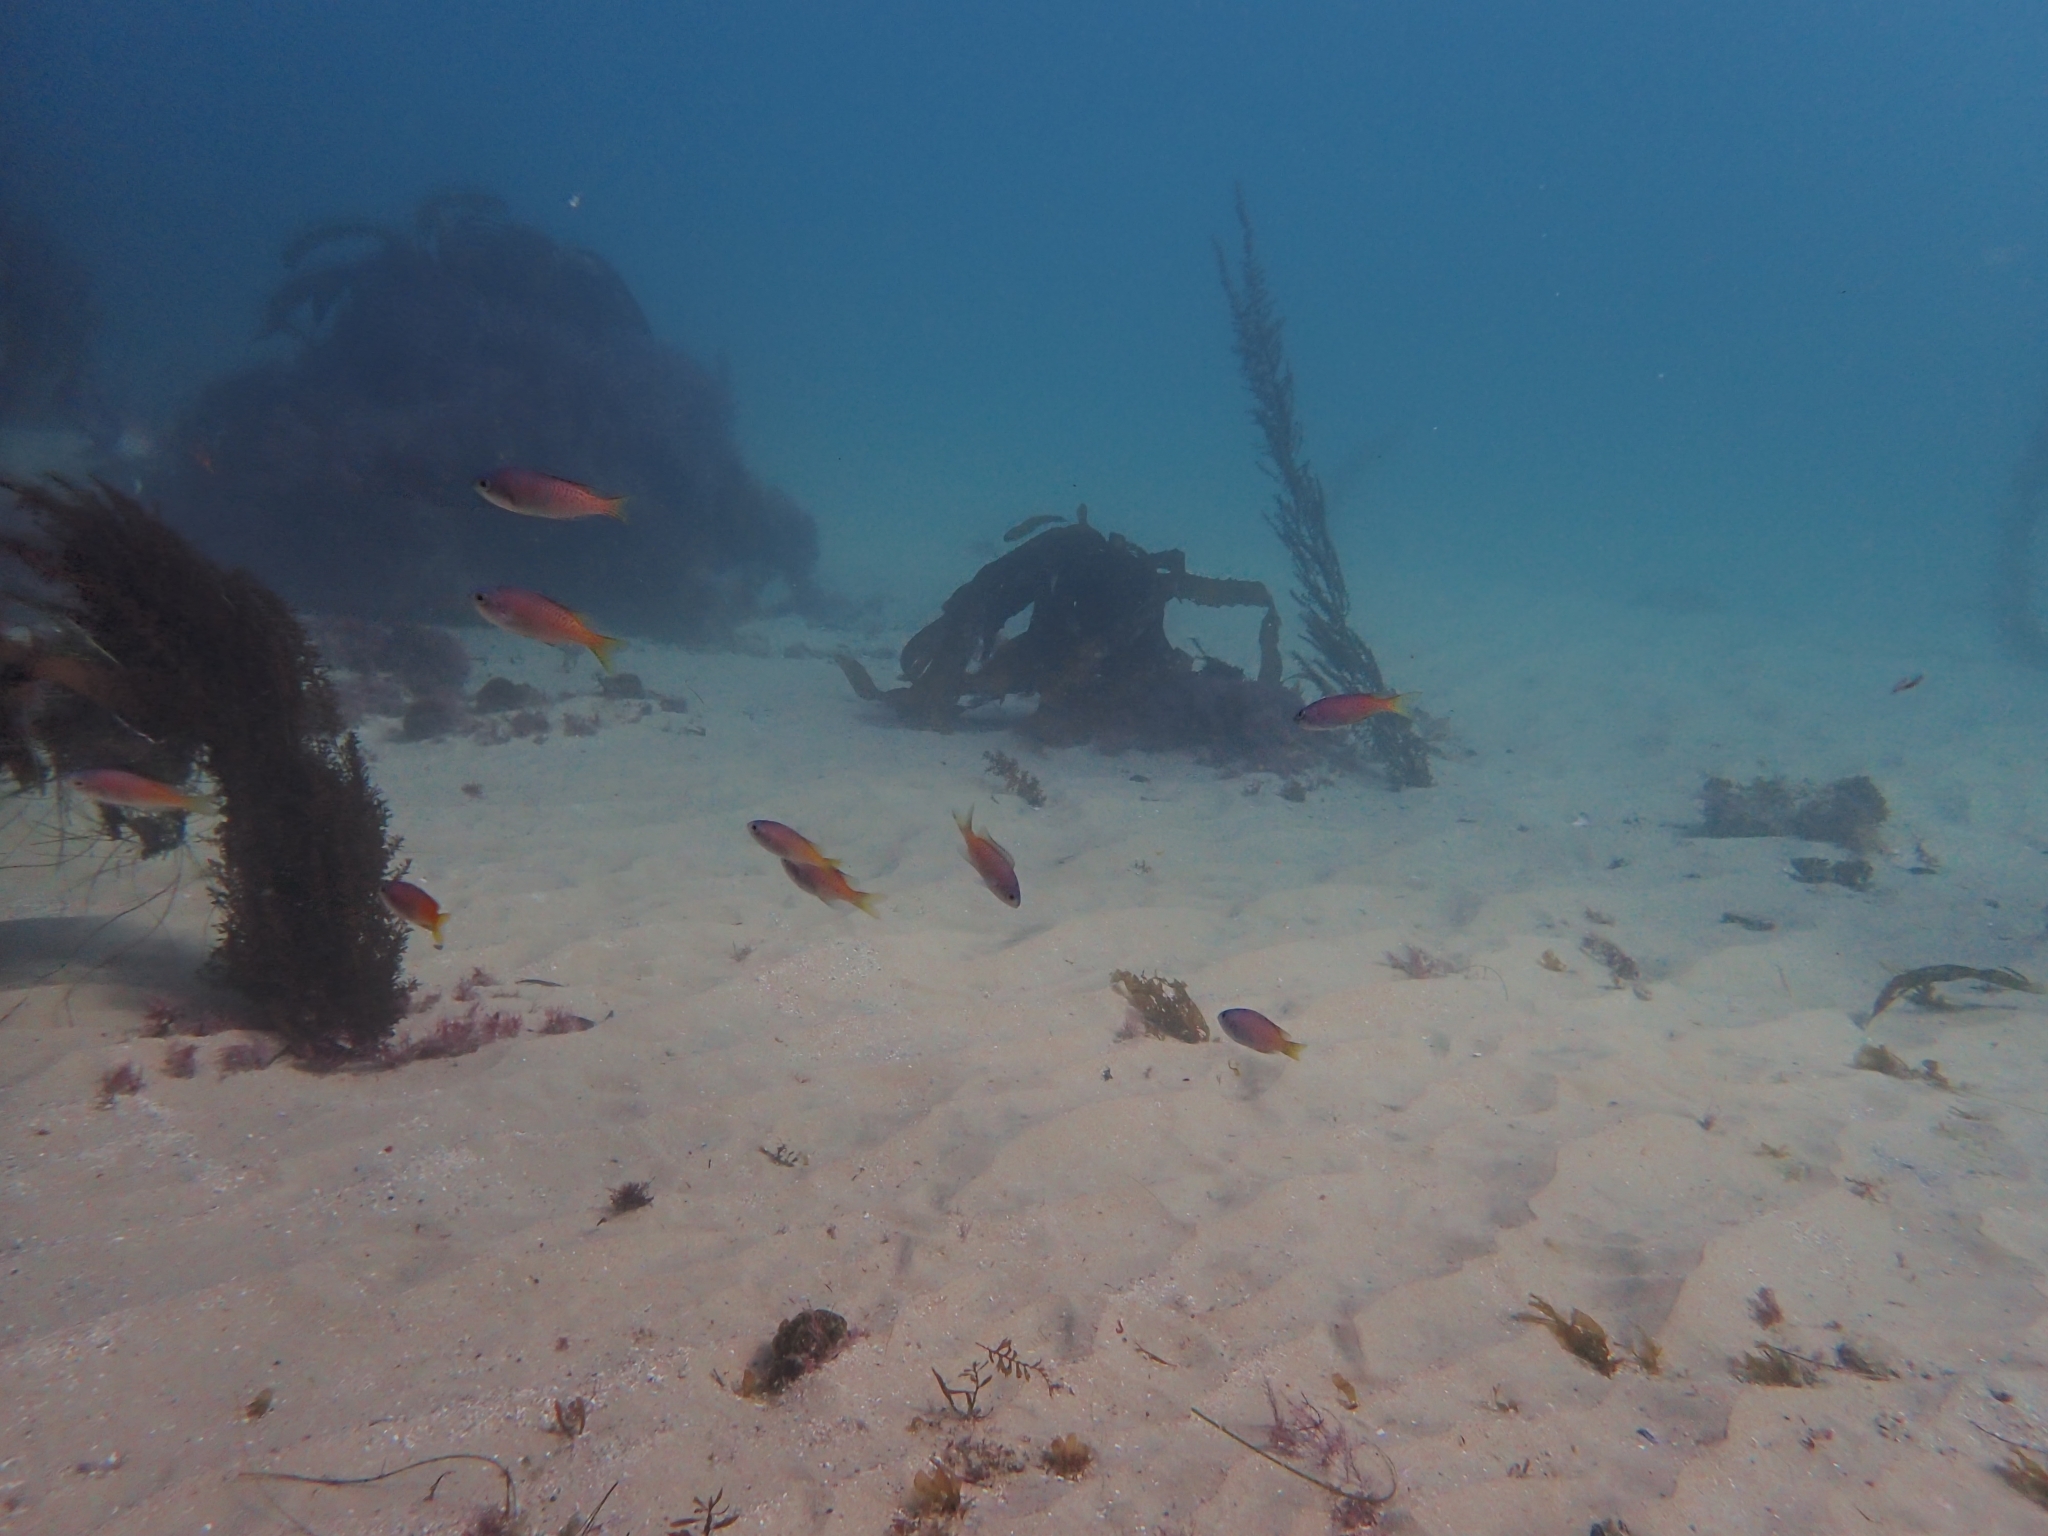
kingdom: Animalia
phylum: Chordata
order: Perciformes
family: Pomacentridae
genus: Chromis
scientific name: Chromis punctipinnis
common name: Blacksmith
